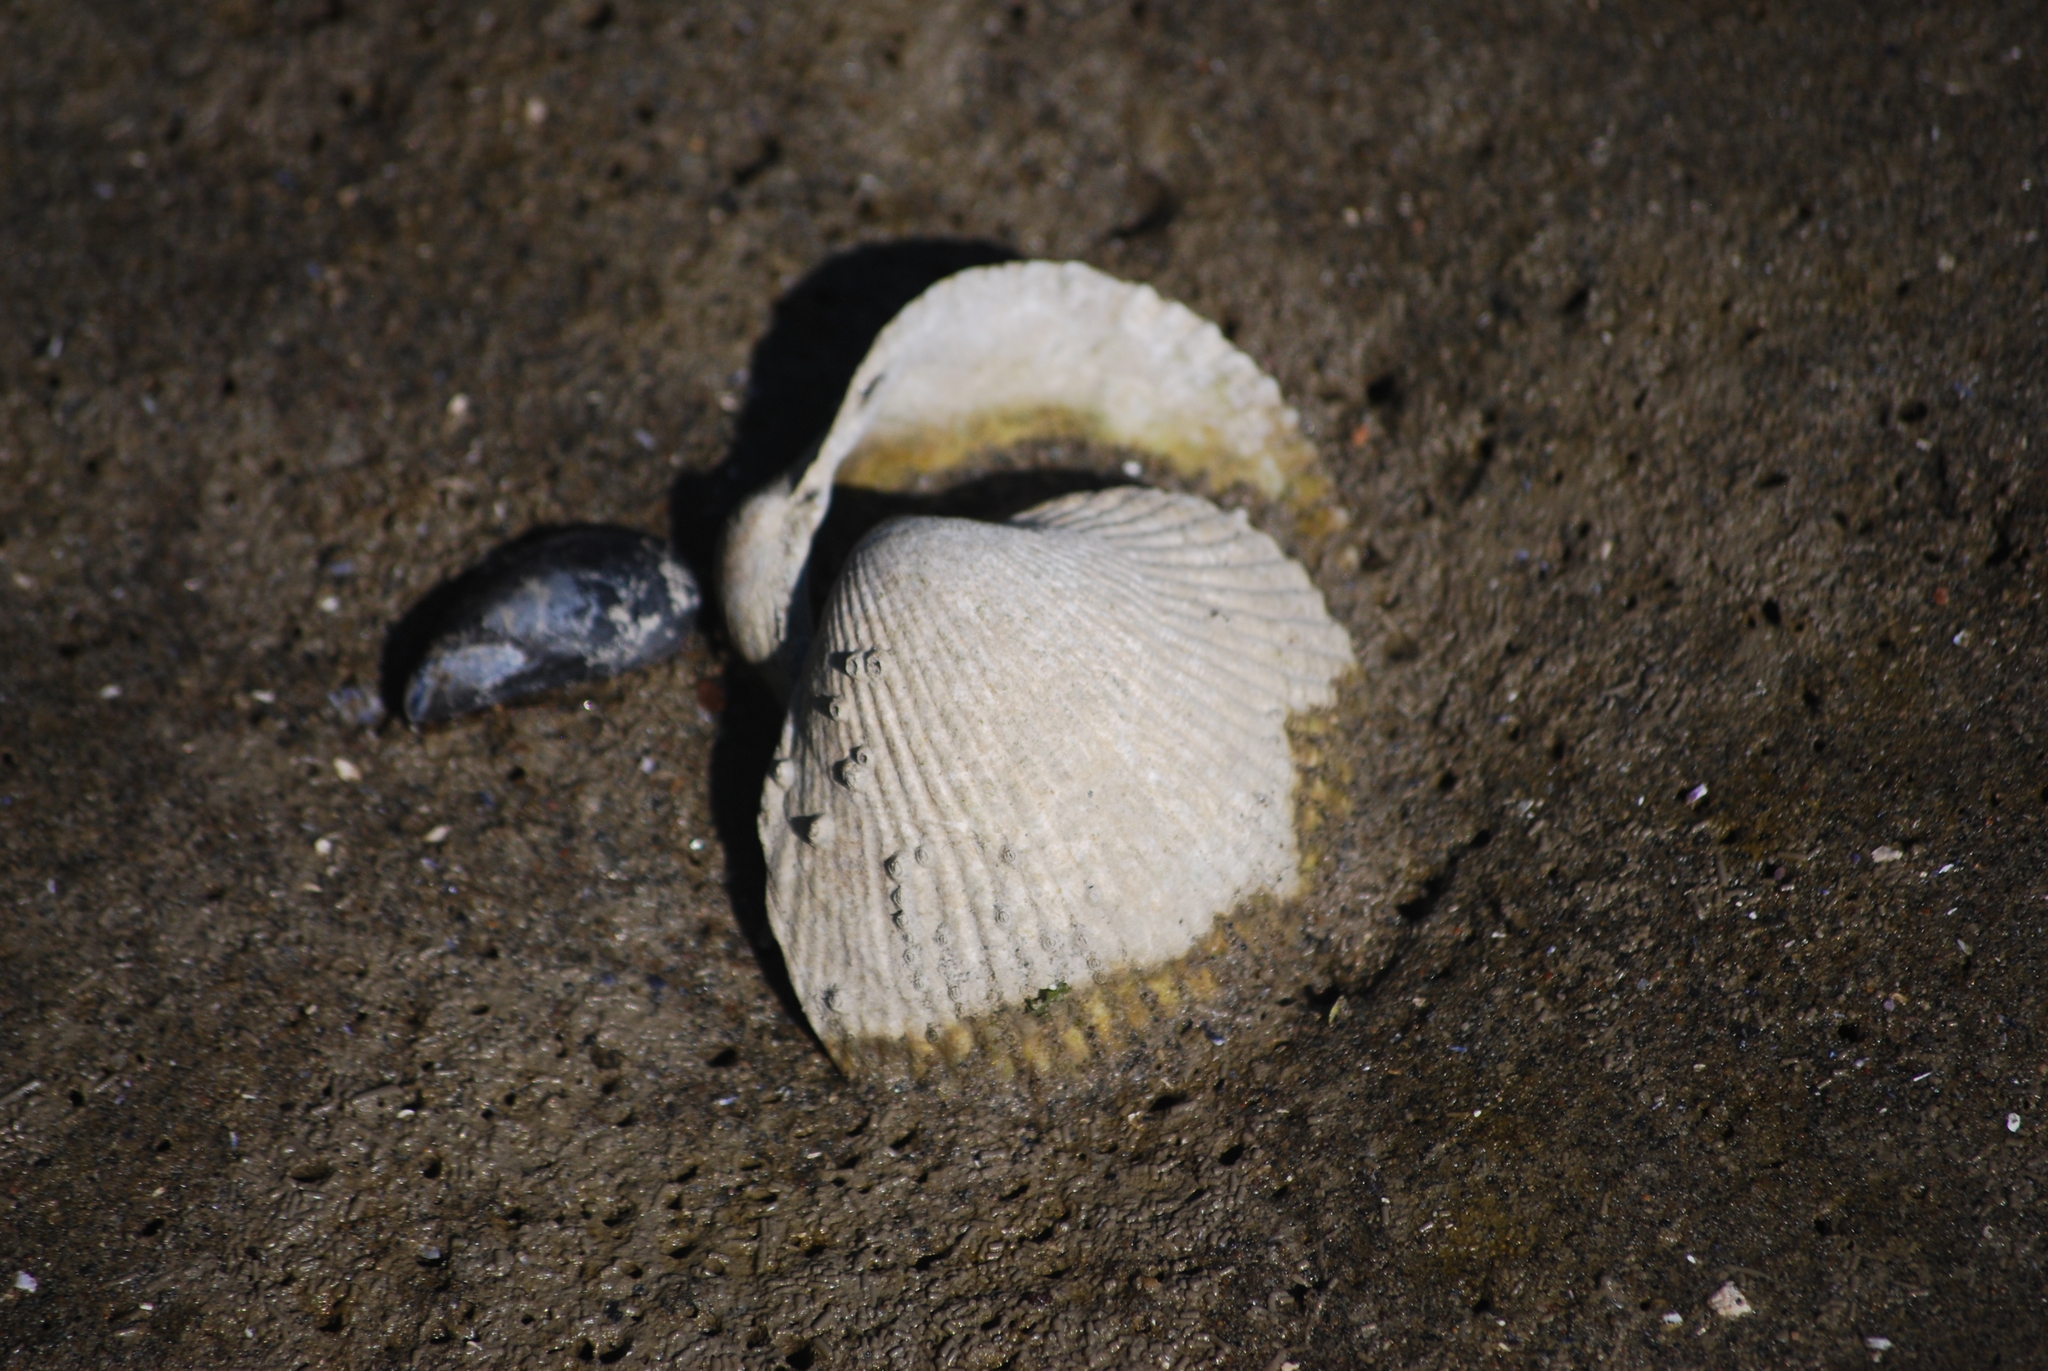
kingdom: Animalia
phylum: Mollusca
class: Bivalvia
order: Cardiida
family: Cardiidae
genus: Clinocardium
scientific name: Clinocardium nuttallii
